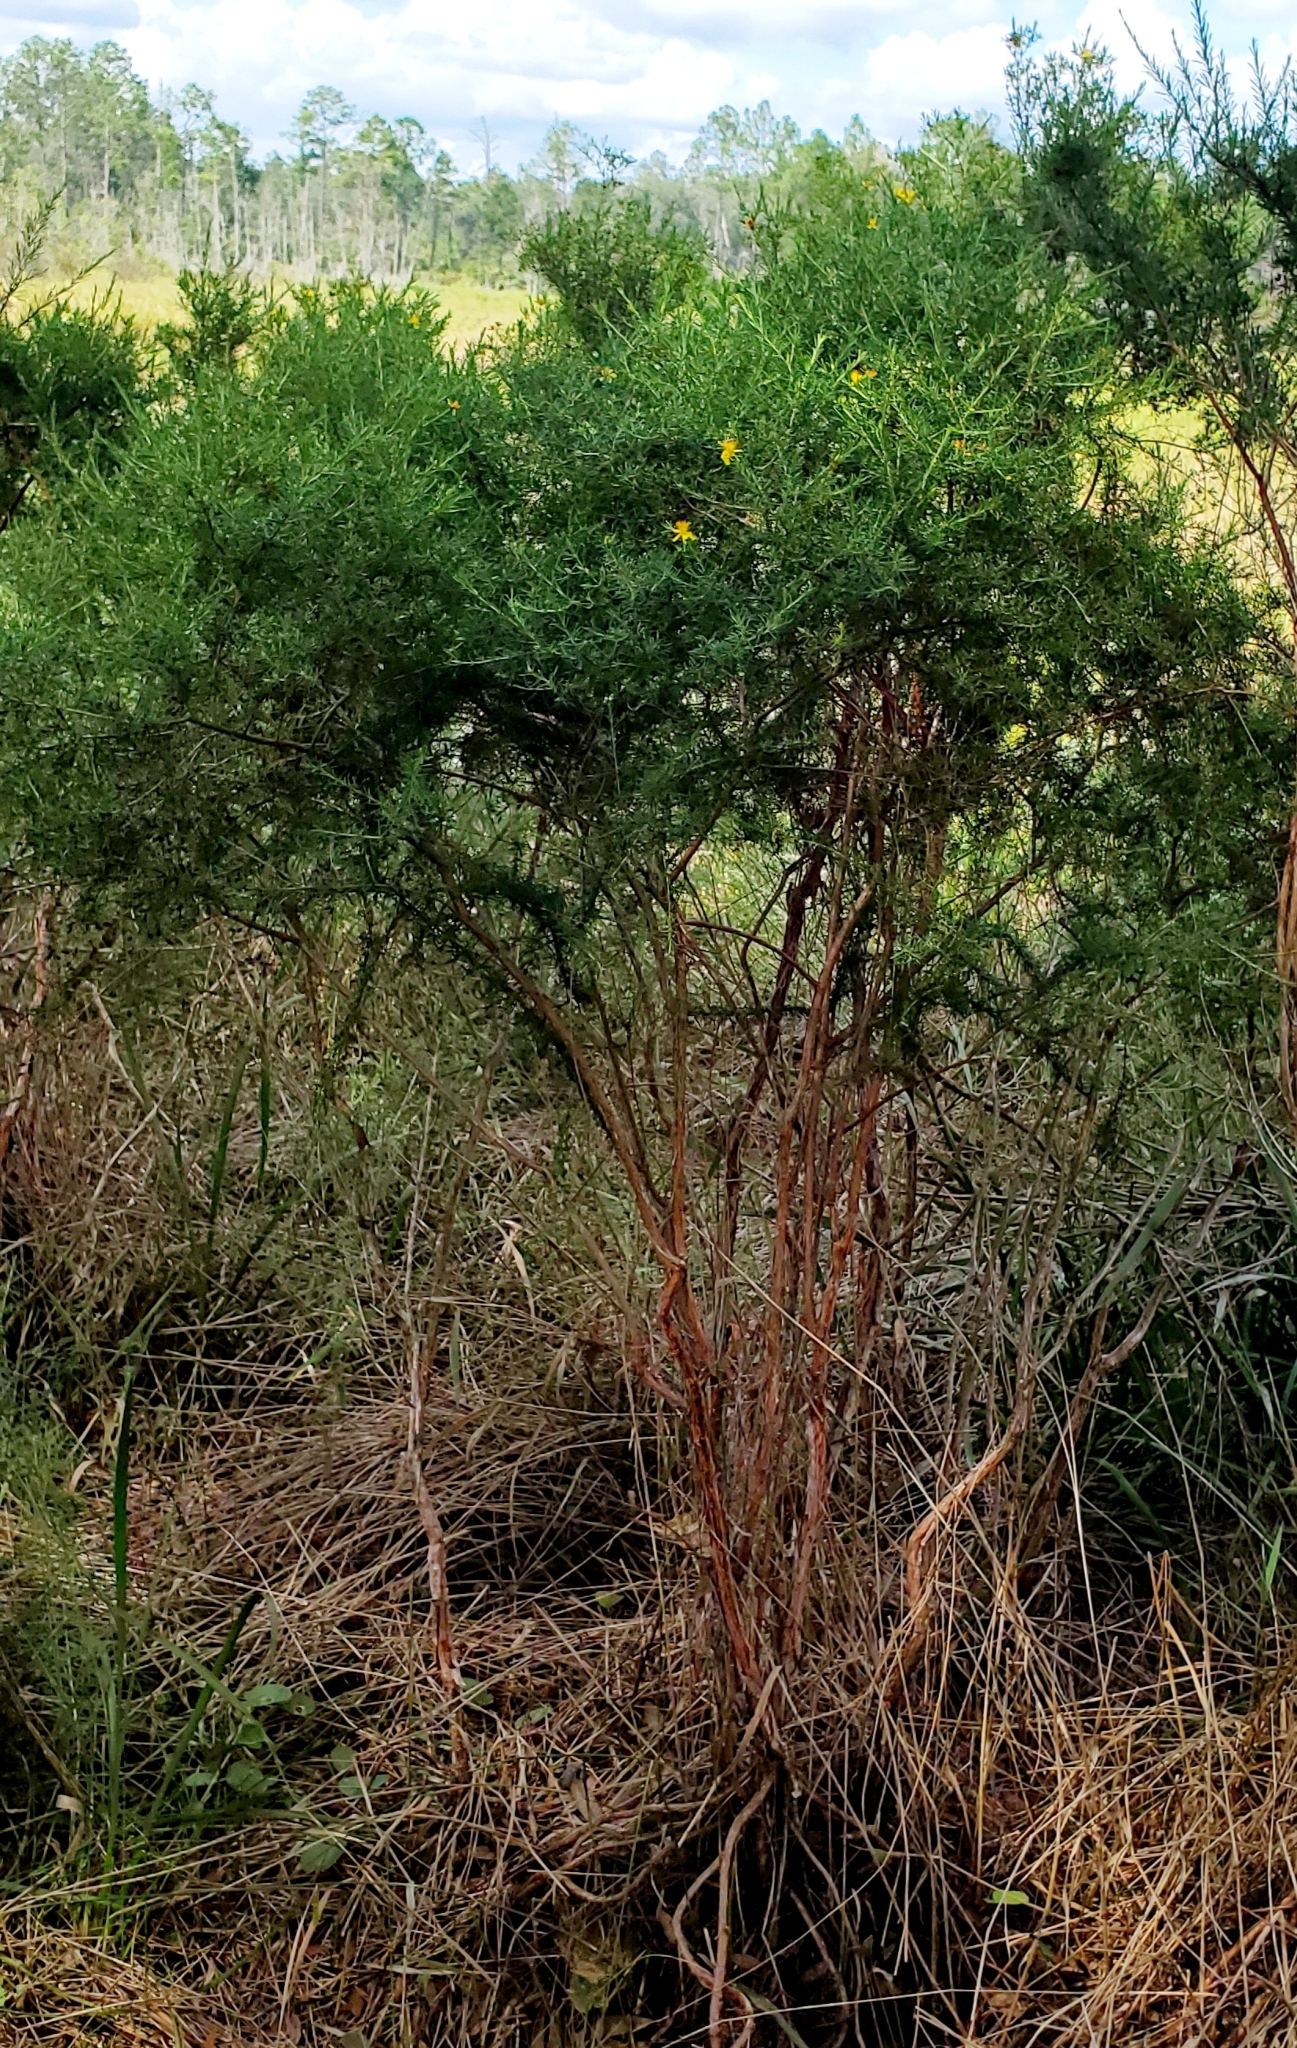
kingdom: Plantae
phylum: Tracheophyta
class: Magnoliopsida
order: Malpighiales
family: Hypericaceae
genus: Hypericum
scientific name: Hypericum fasciculatum
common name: Peelbark st. john's wort
